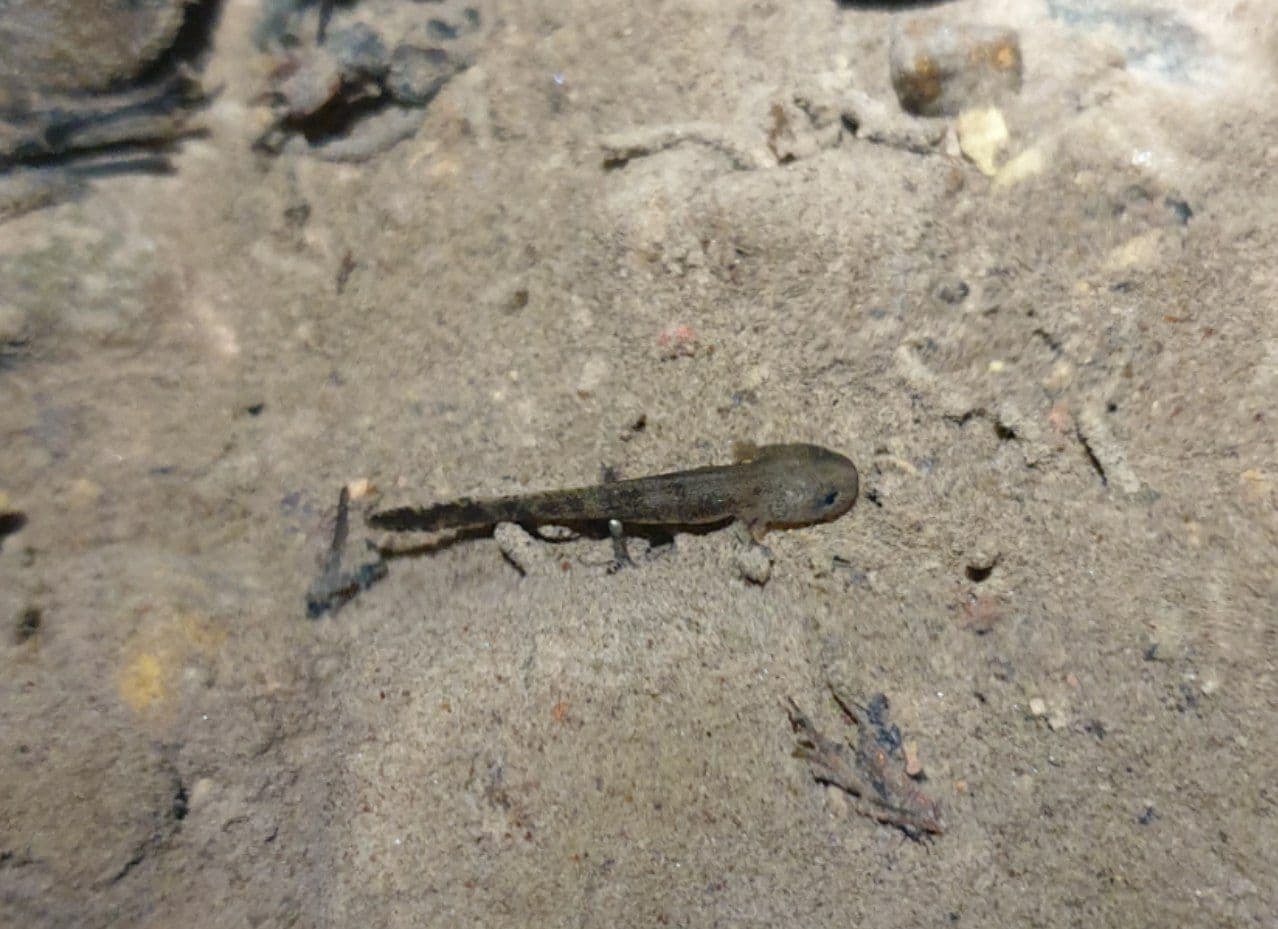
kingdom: Animalia
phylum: Chordata
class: Amphibia
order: Caudata
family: Salamandridae
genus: Salamandra
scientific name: Salamandra salamandra
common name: Fire salamander
